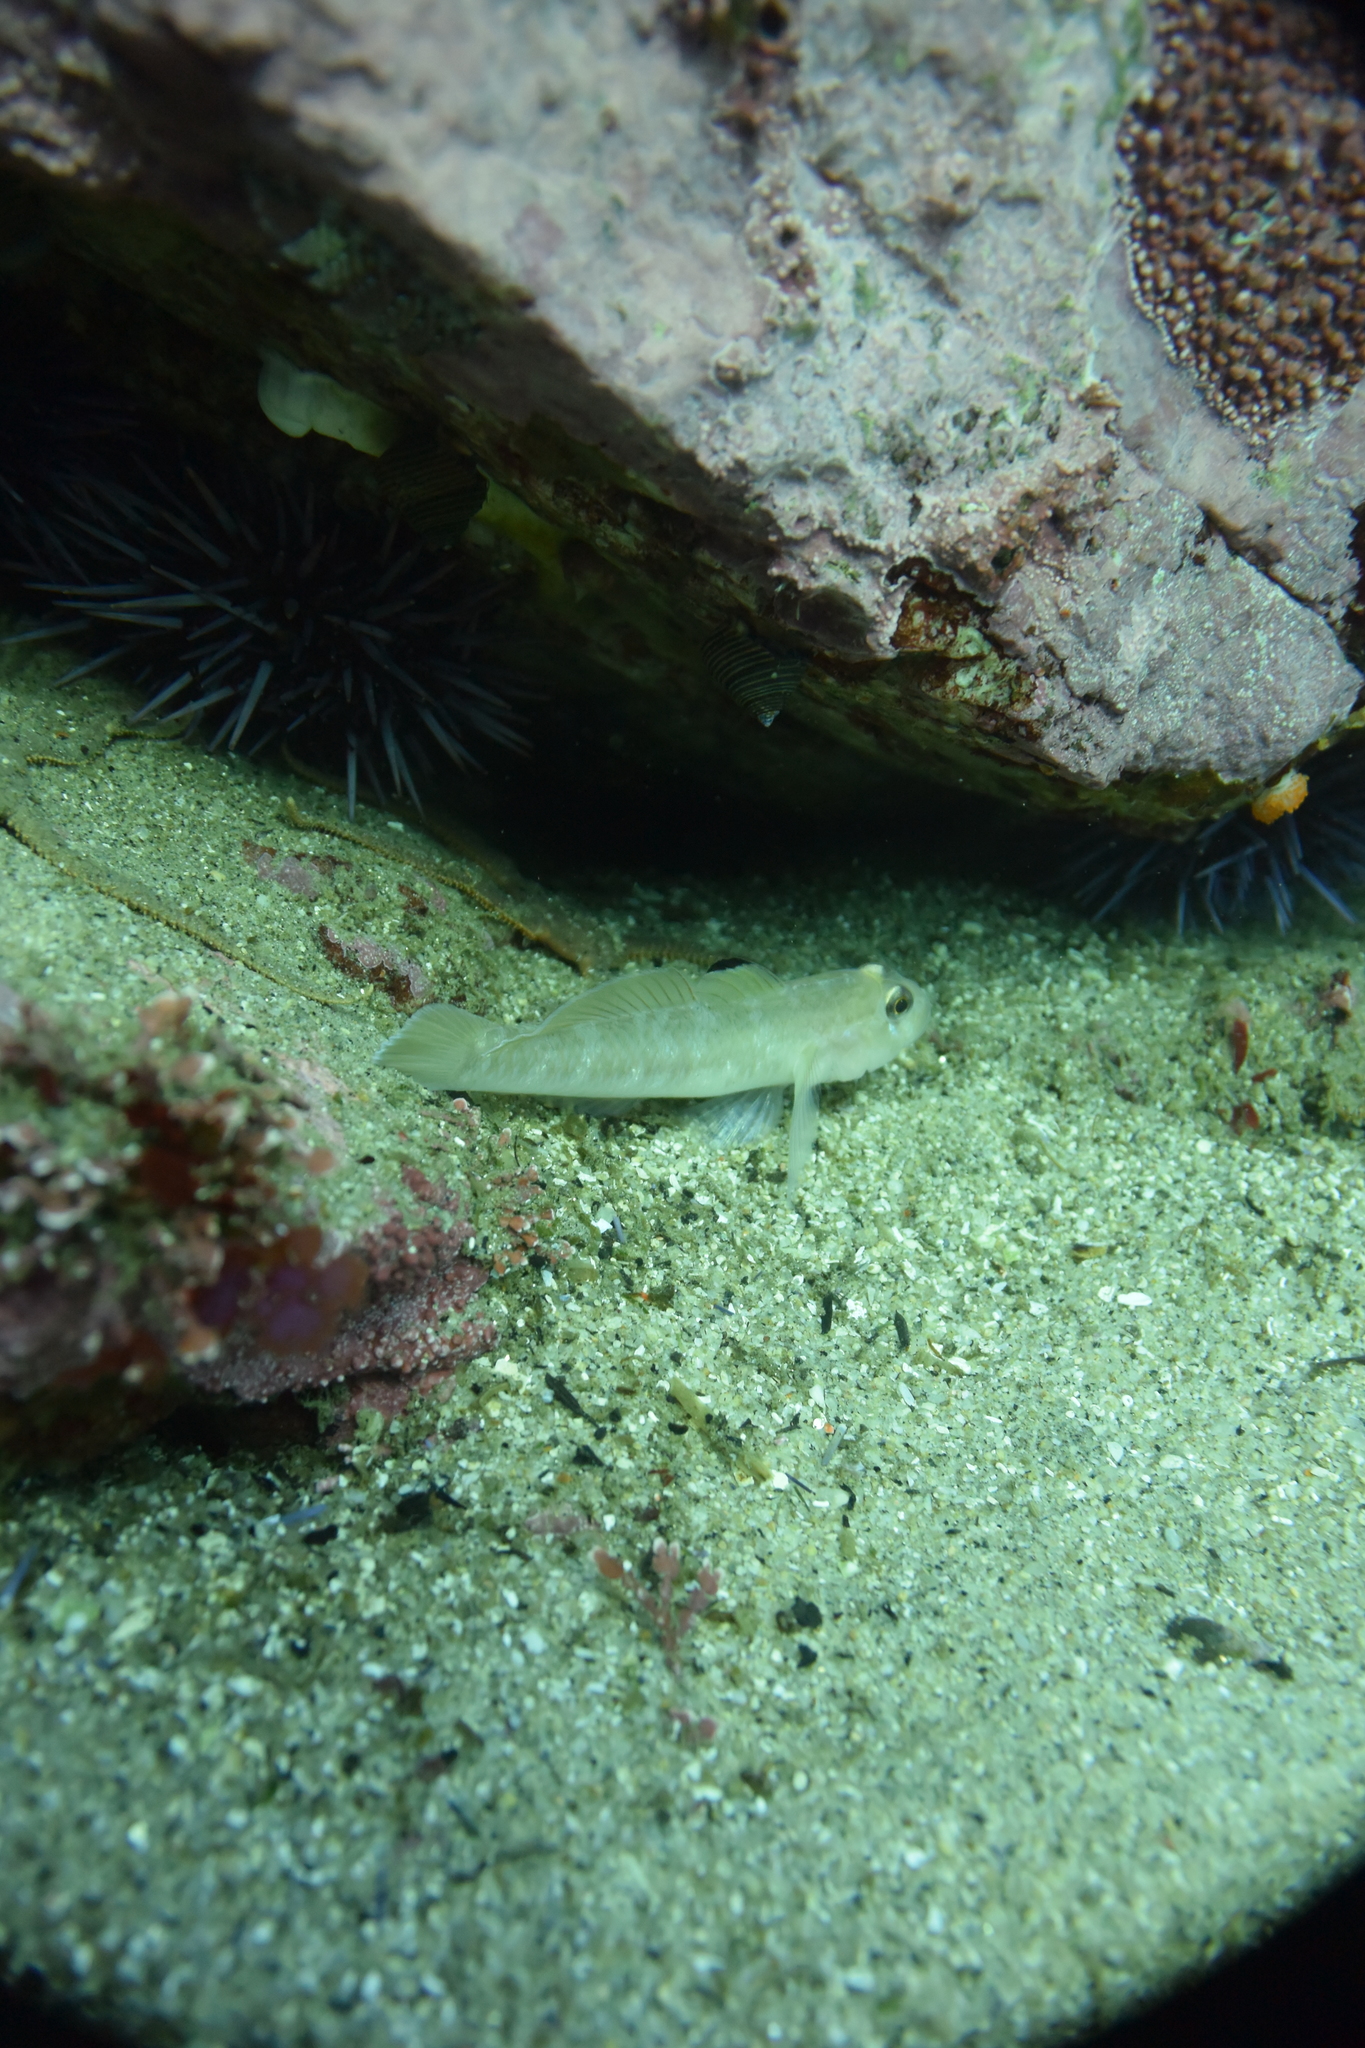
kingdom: Animalia
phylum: Chordata
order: Perciformes
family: Gobiidae
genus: Rhinogobiops
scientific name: Rhinogobiops nicholsii
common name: Blackeye goby
